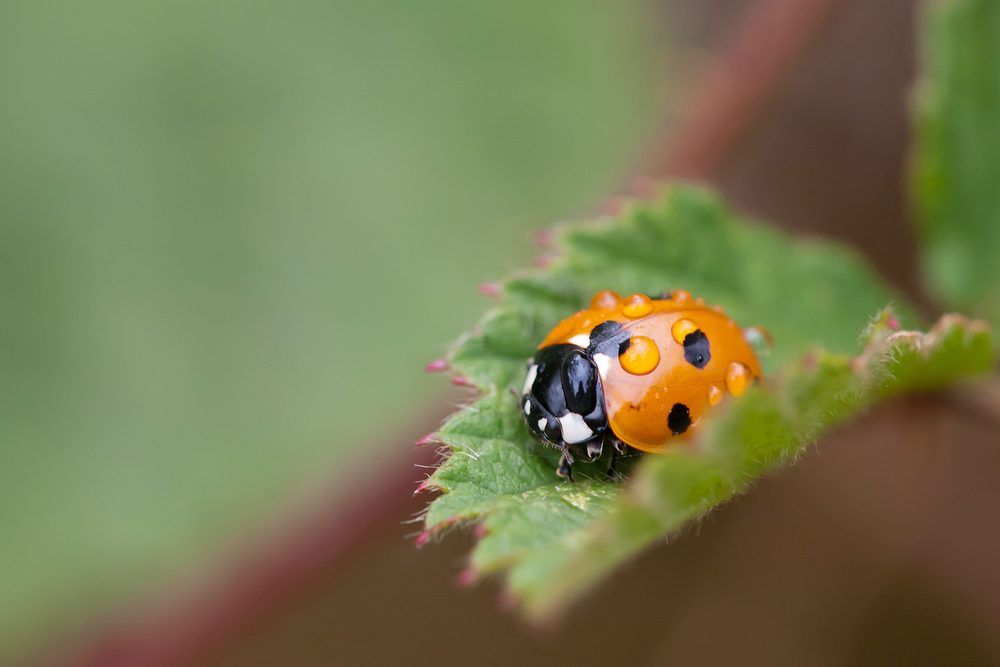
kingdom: Animalia
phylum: Arthropoda
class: Insecta
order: Coleoptera
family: Coccinellidae
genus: Coccinella
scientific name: Coccinella septempunctata
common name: Sevenspotted lady beetle
